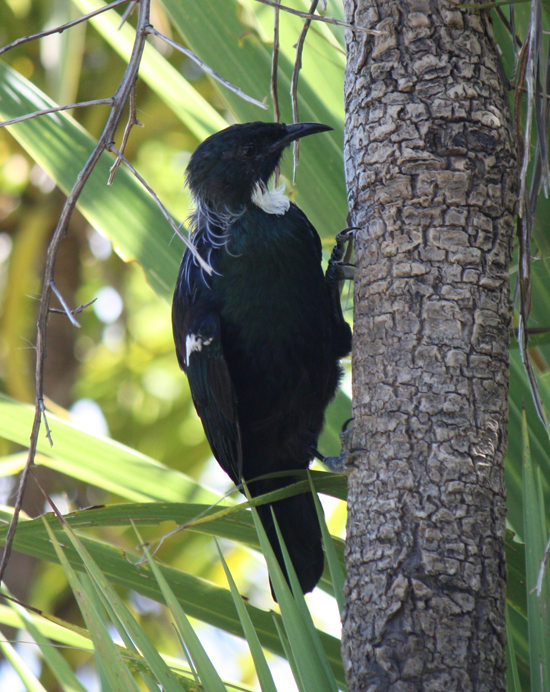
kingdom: Animalia
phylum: Chordata
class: Aves
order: Passeriformes
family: Meliphagidae
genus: Prosthemadera
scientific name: Prosthemadera novaeseelandiae
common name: Tui
